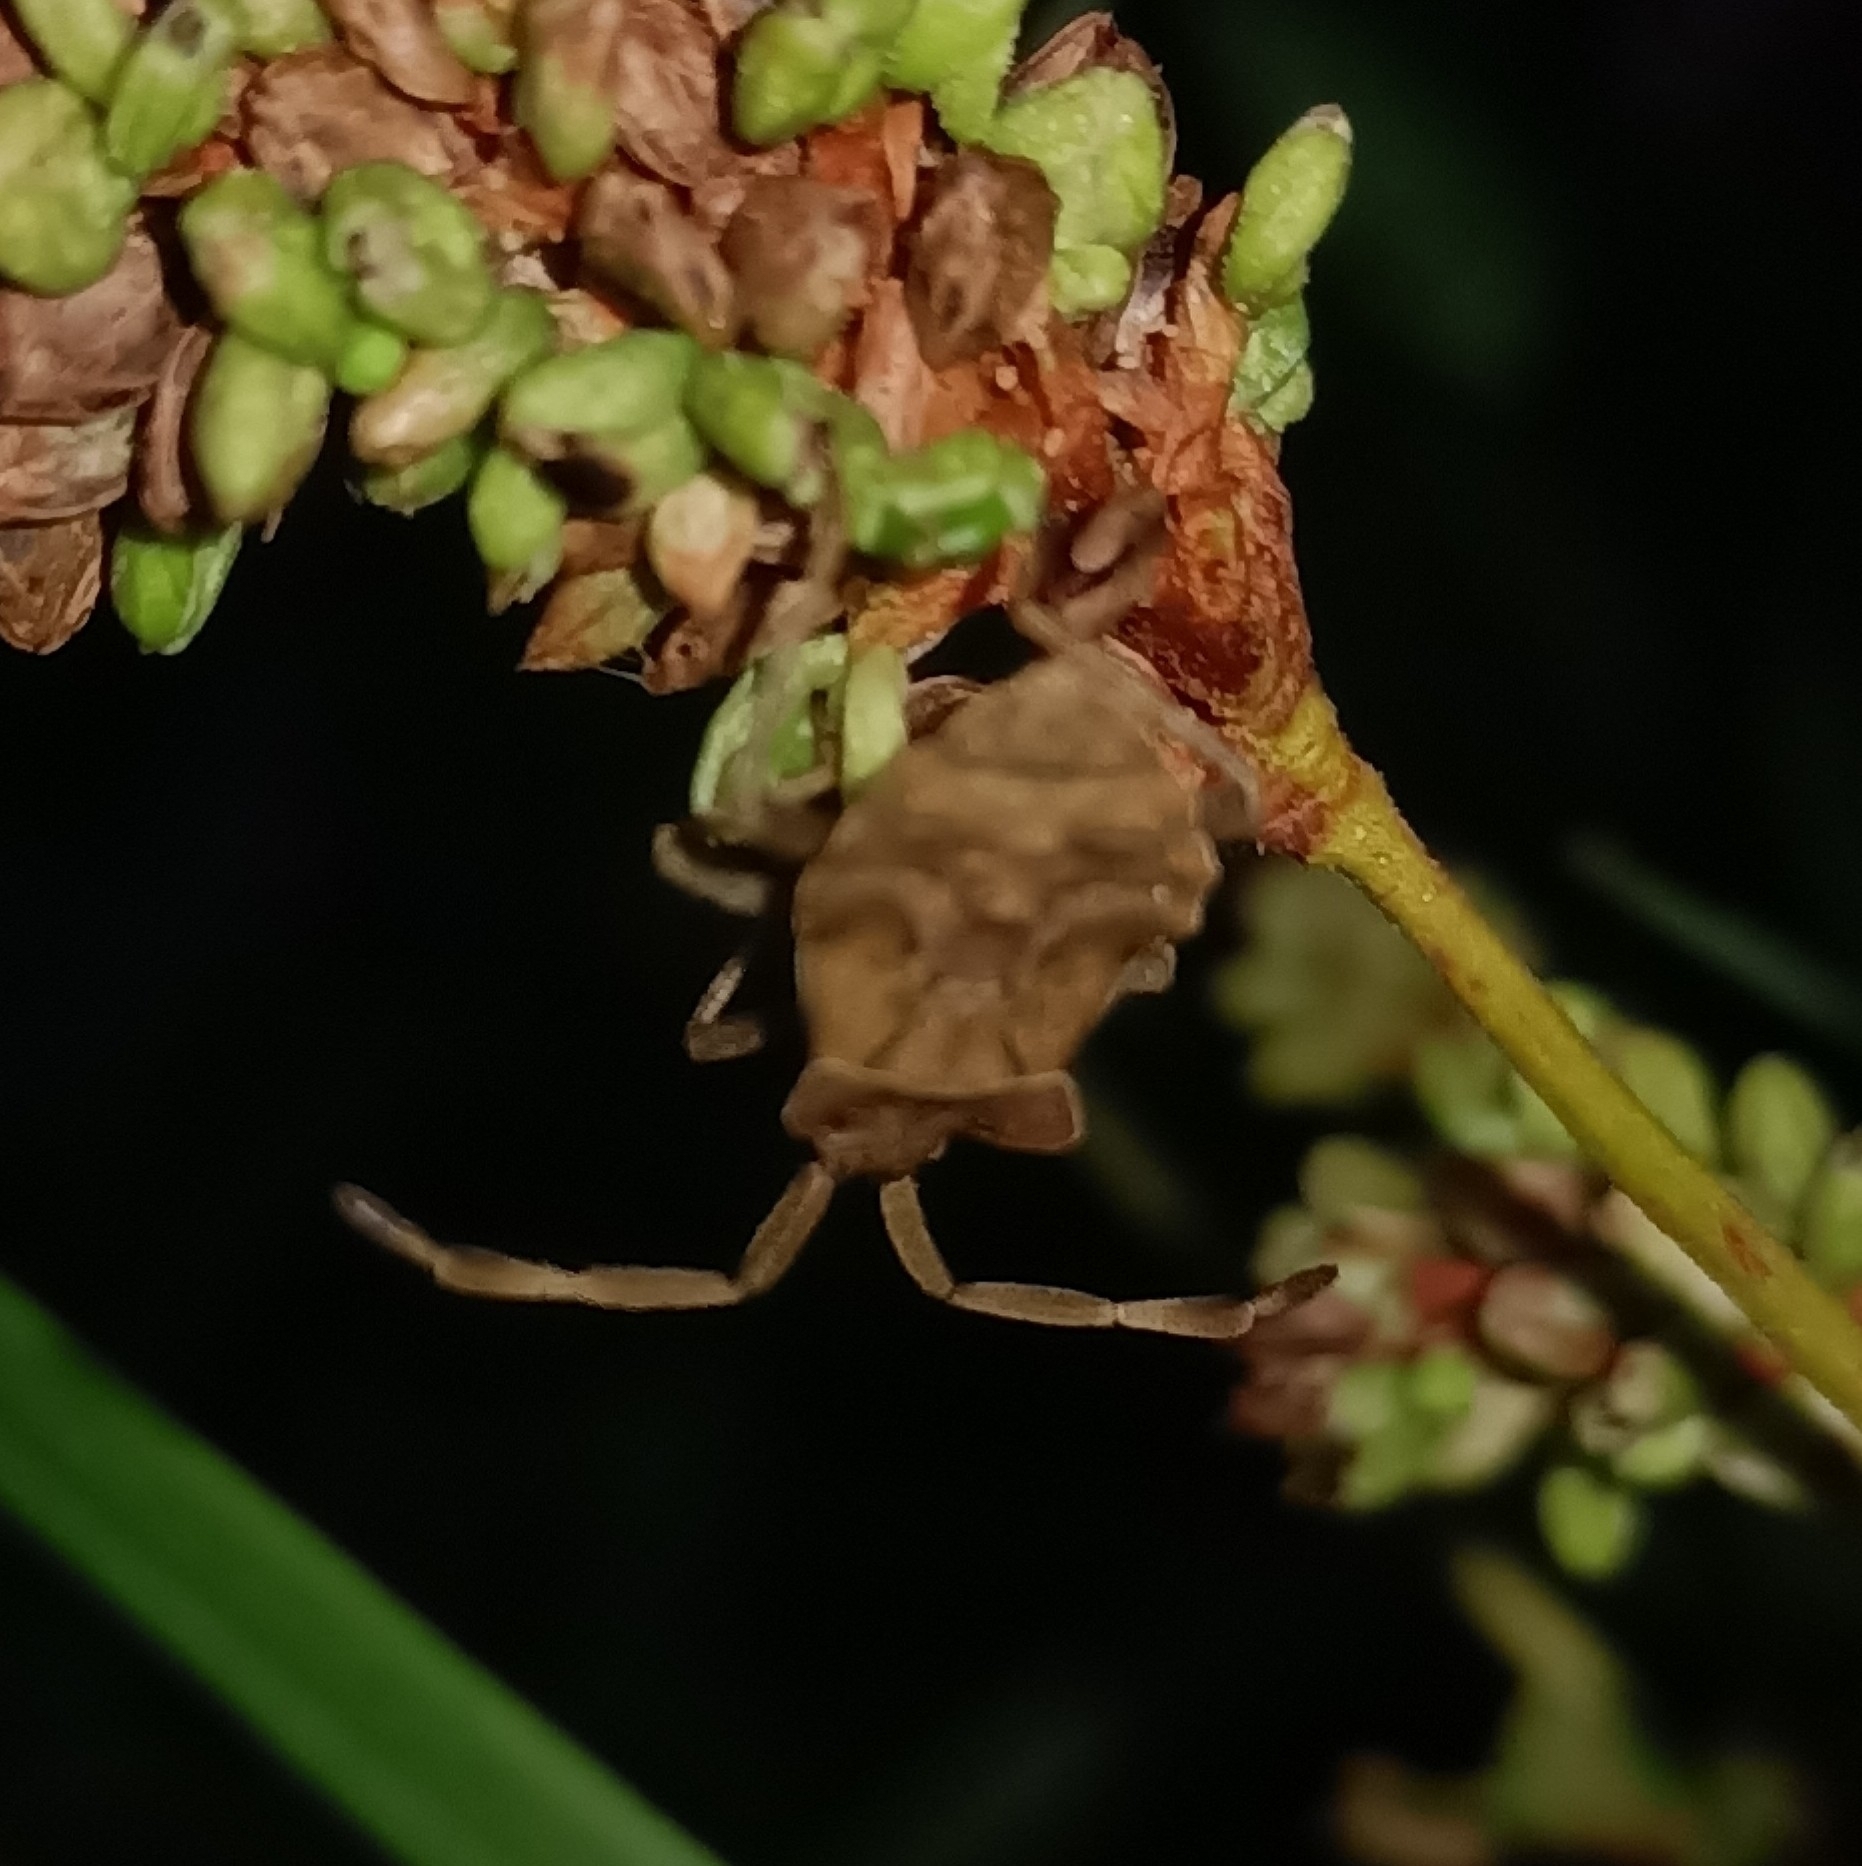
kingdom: Animalia
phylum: Arthropoda
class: Insecta
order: Hemiptera
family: Coreidae
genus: Coreus
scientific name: Coreus marginatus
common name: Dock bug
